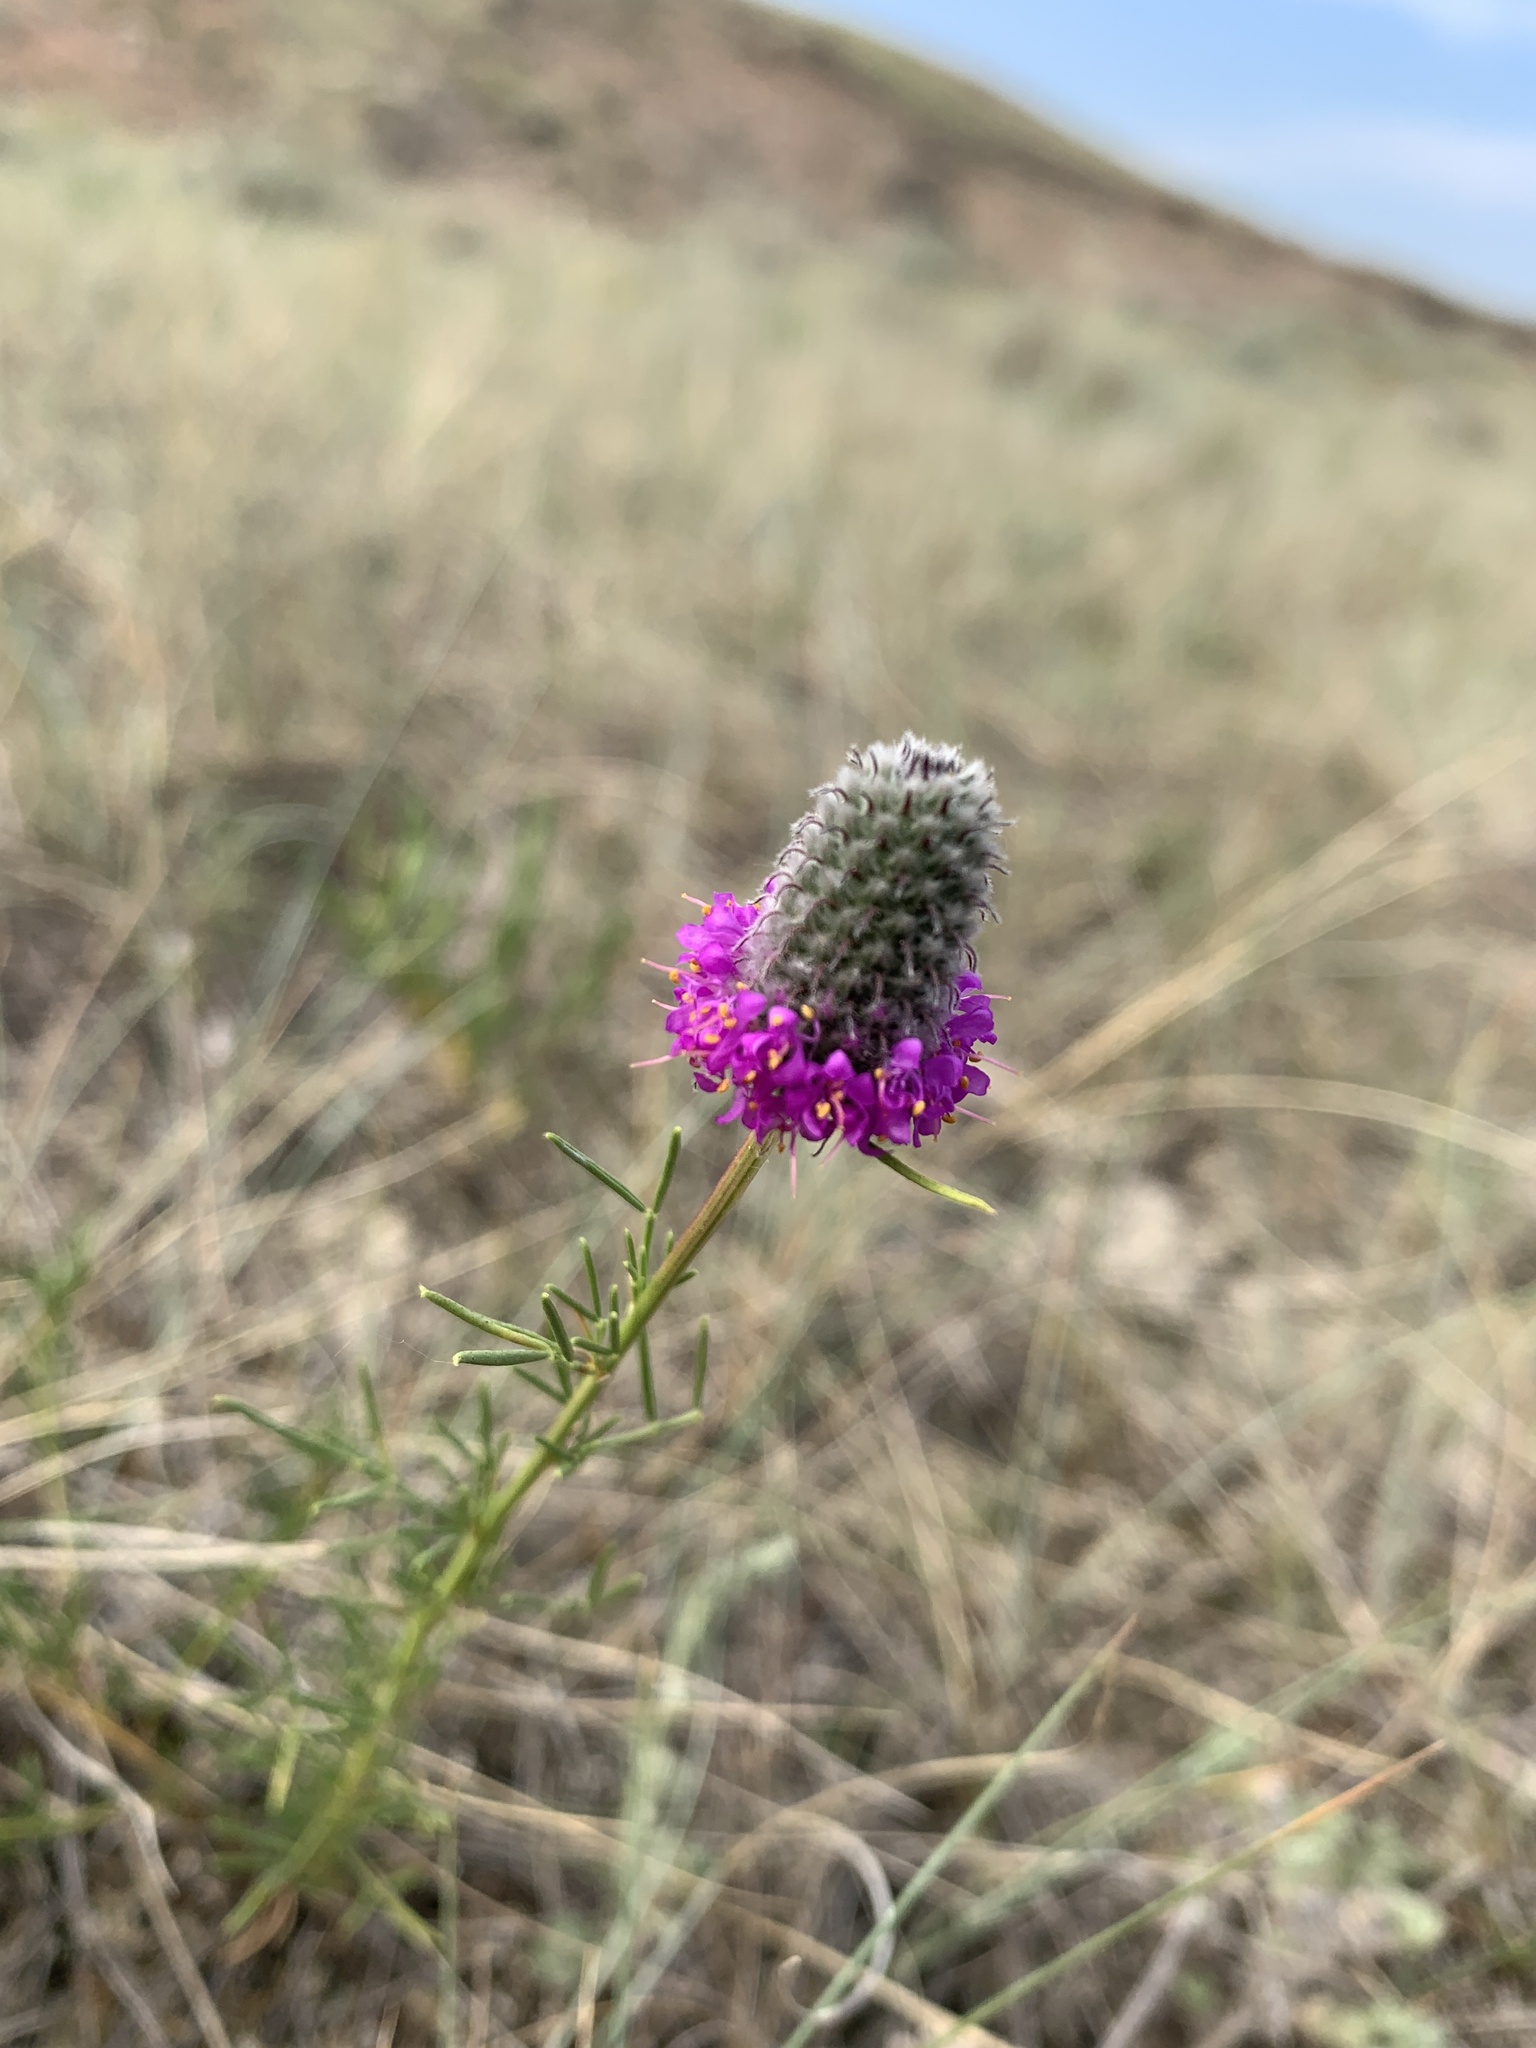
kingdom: Plantae
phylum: Tracheophyta
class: Magnoliopsida
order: Fabales
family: Fabaceae
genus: Dalea
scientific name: Dalea purpurea
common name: Purple prairie-clover
